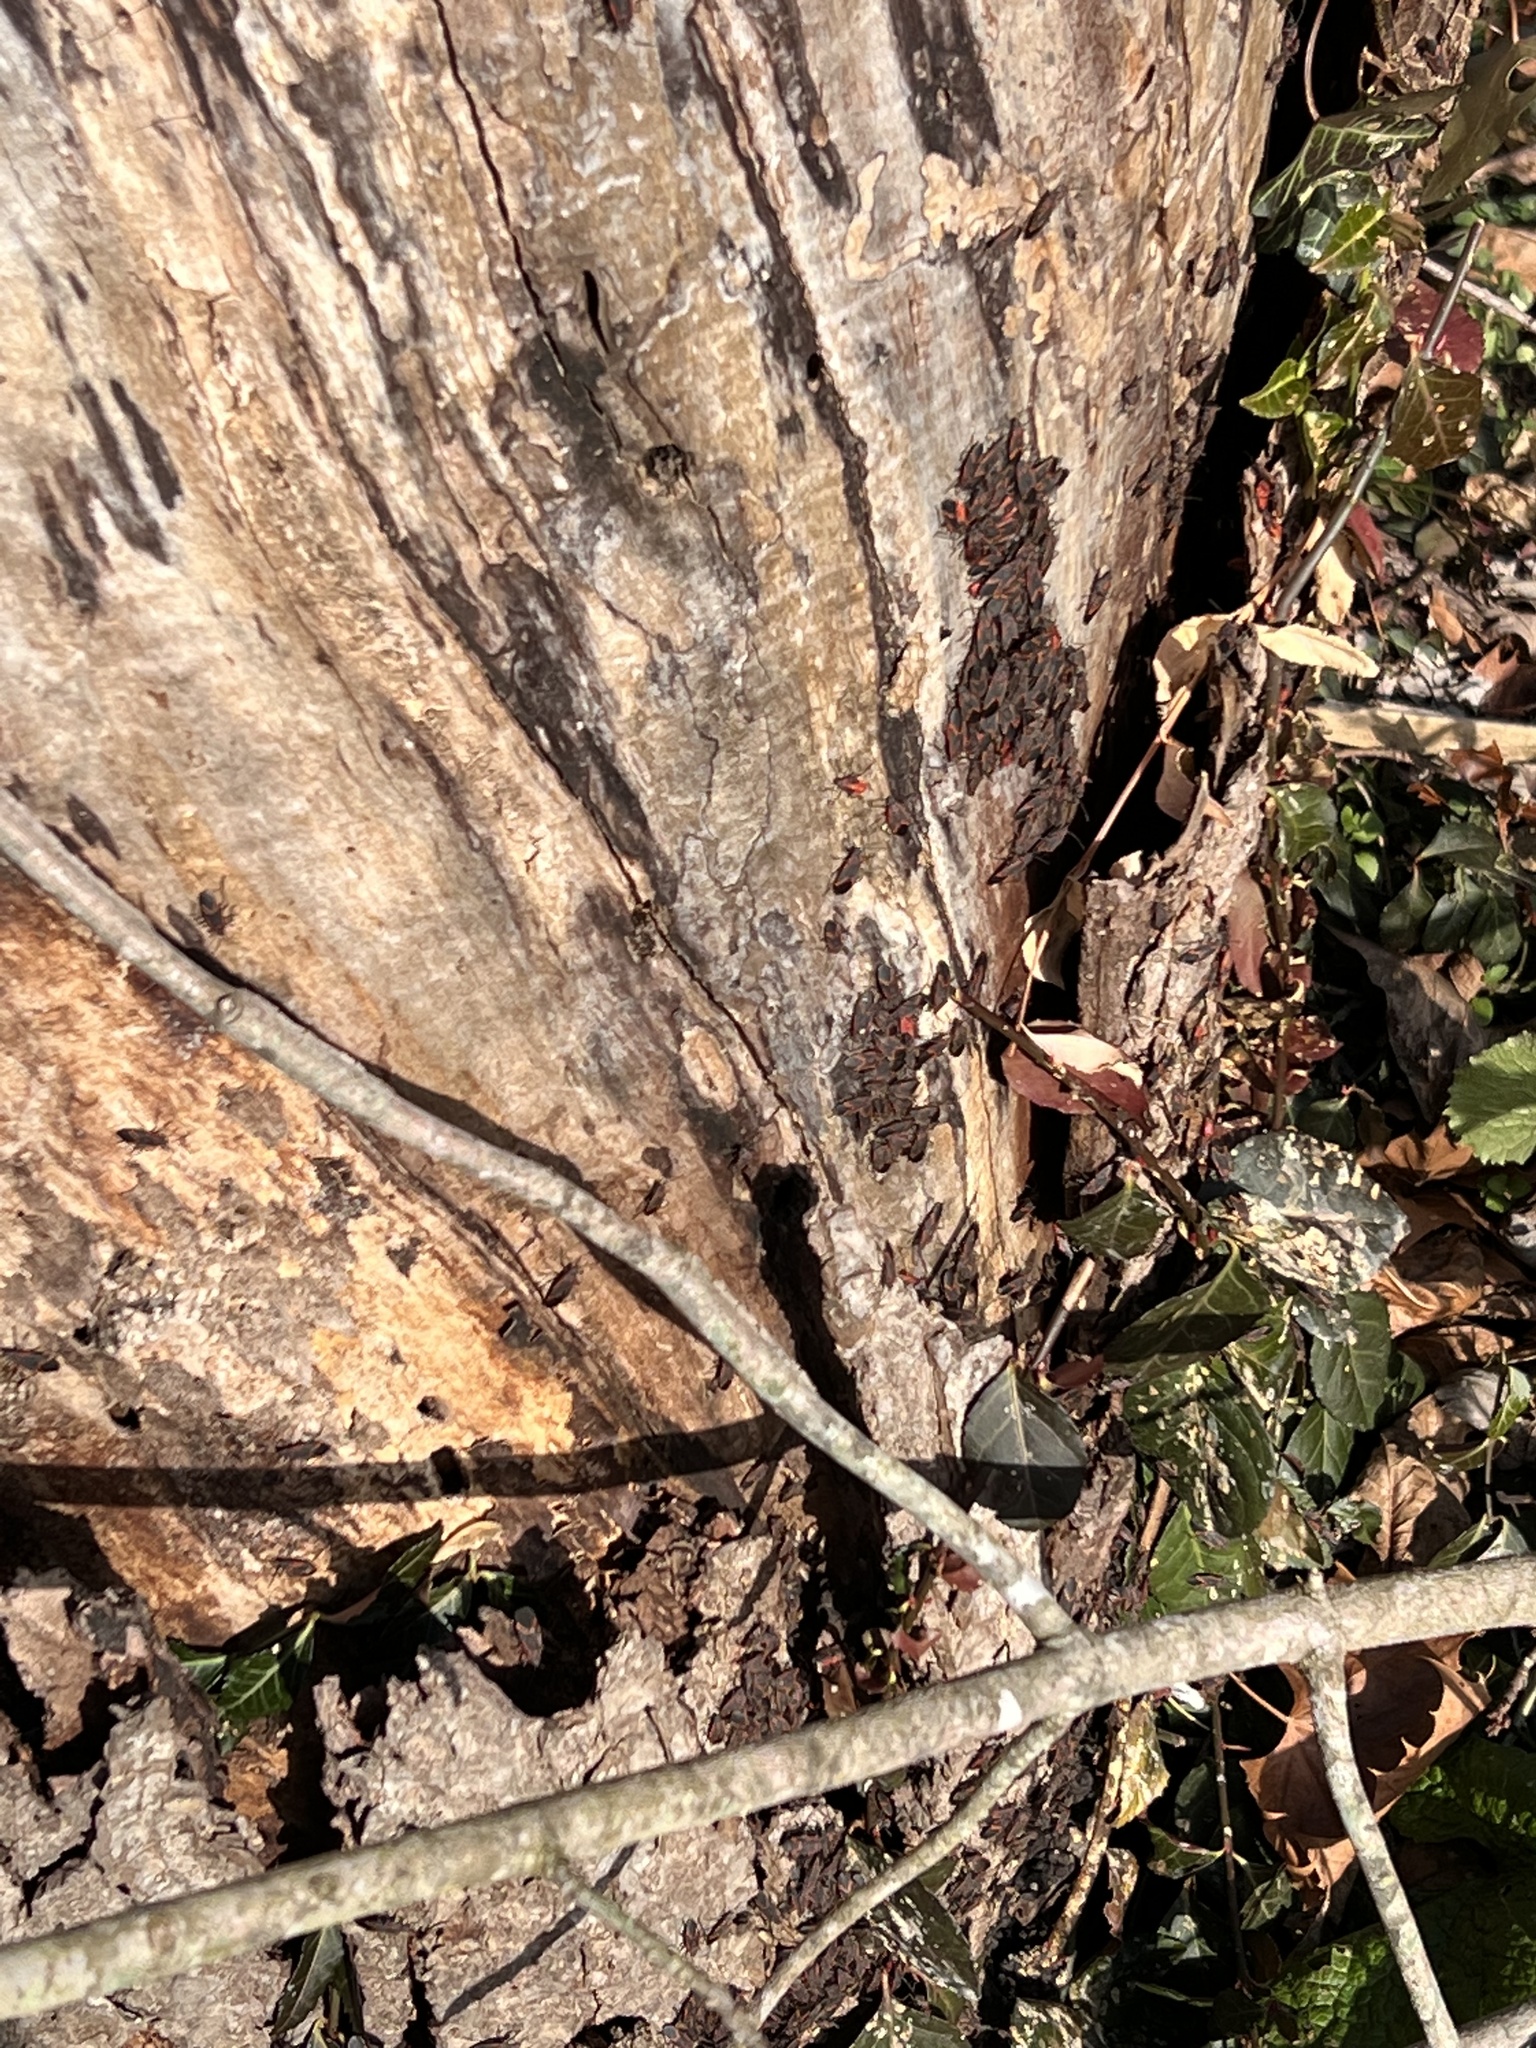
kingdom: Animalia
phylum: Arthropoda
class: Insecta
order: Hemiptera
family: Rhopalidae
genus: Boisea
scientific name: Boisea trivittata
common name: Boxelder bug
